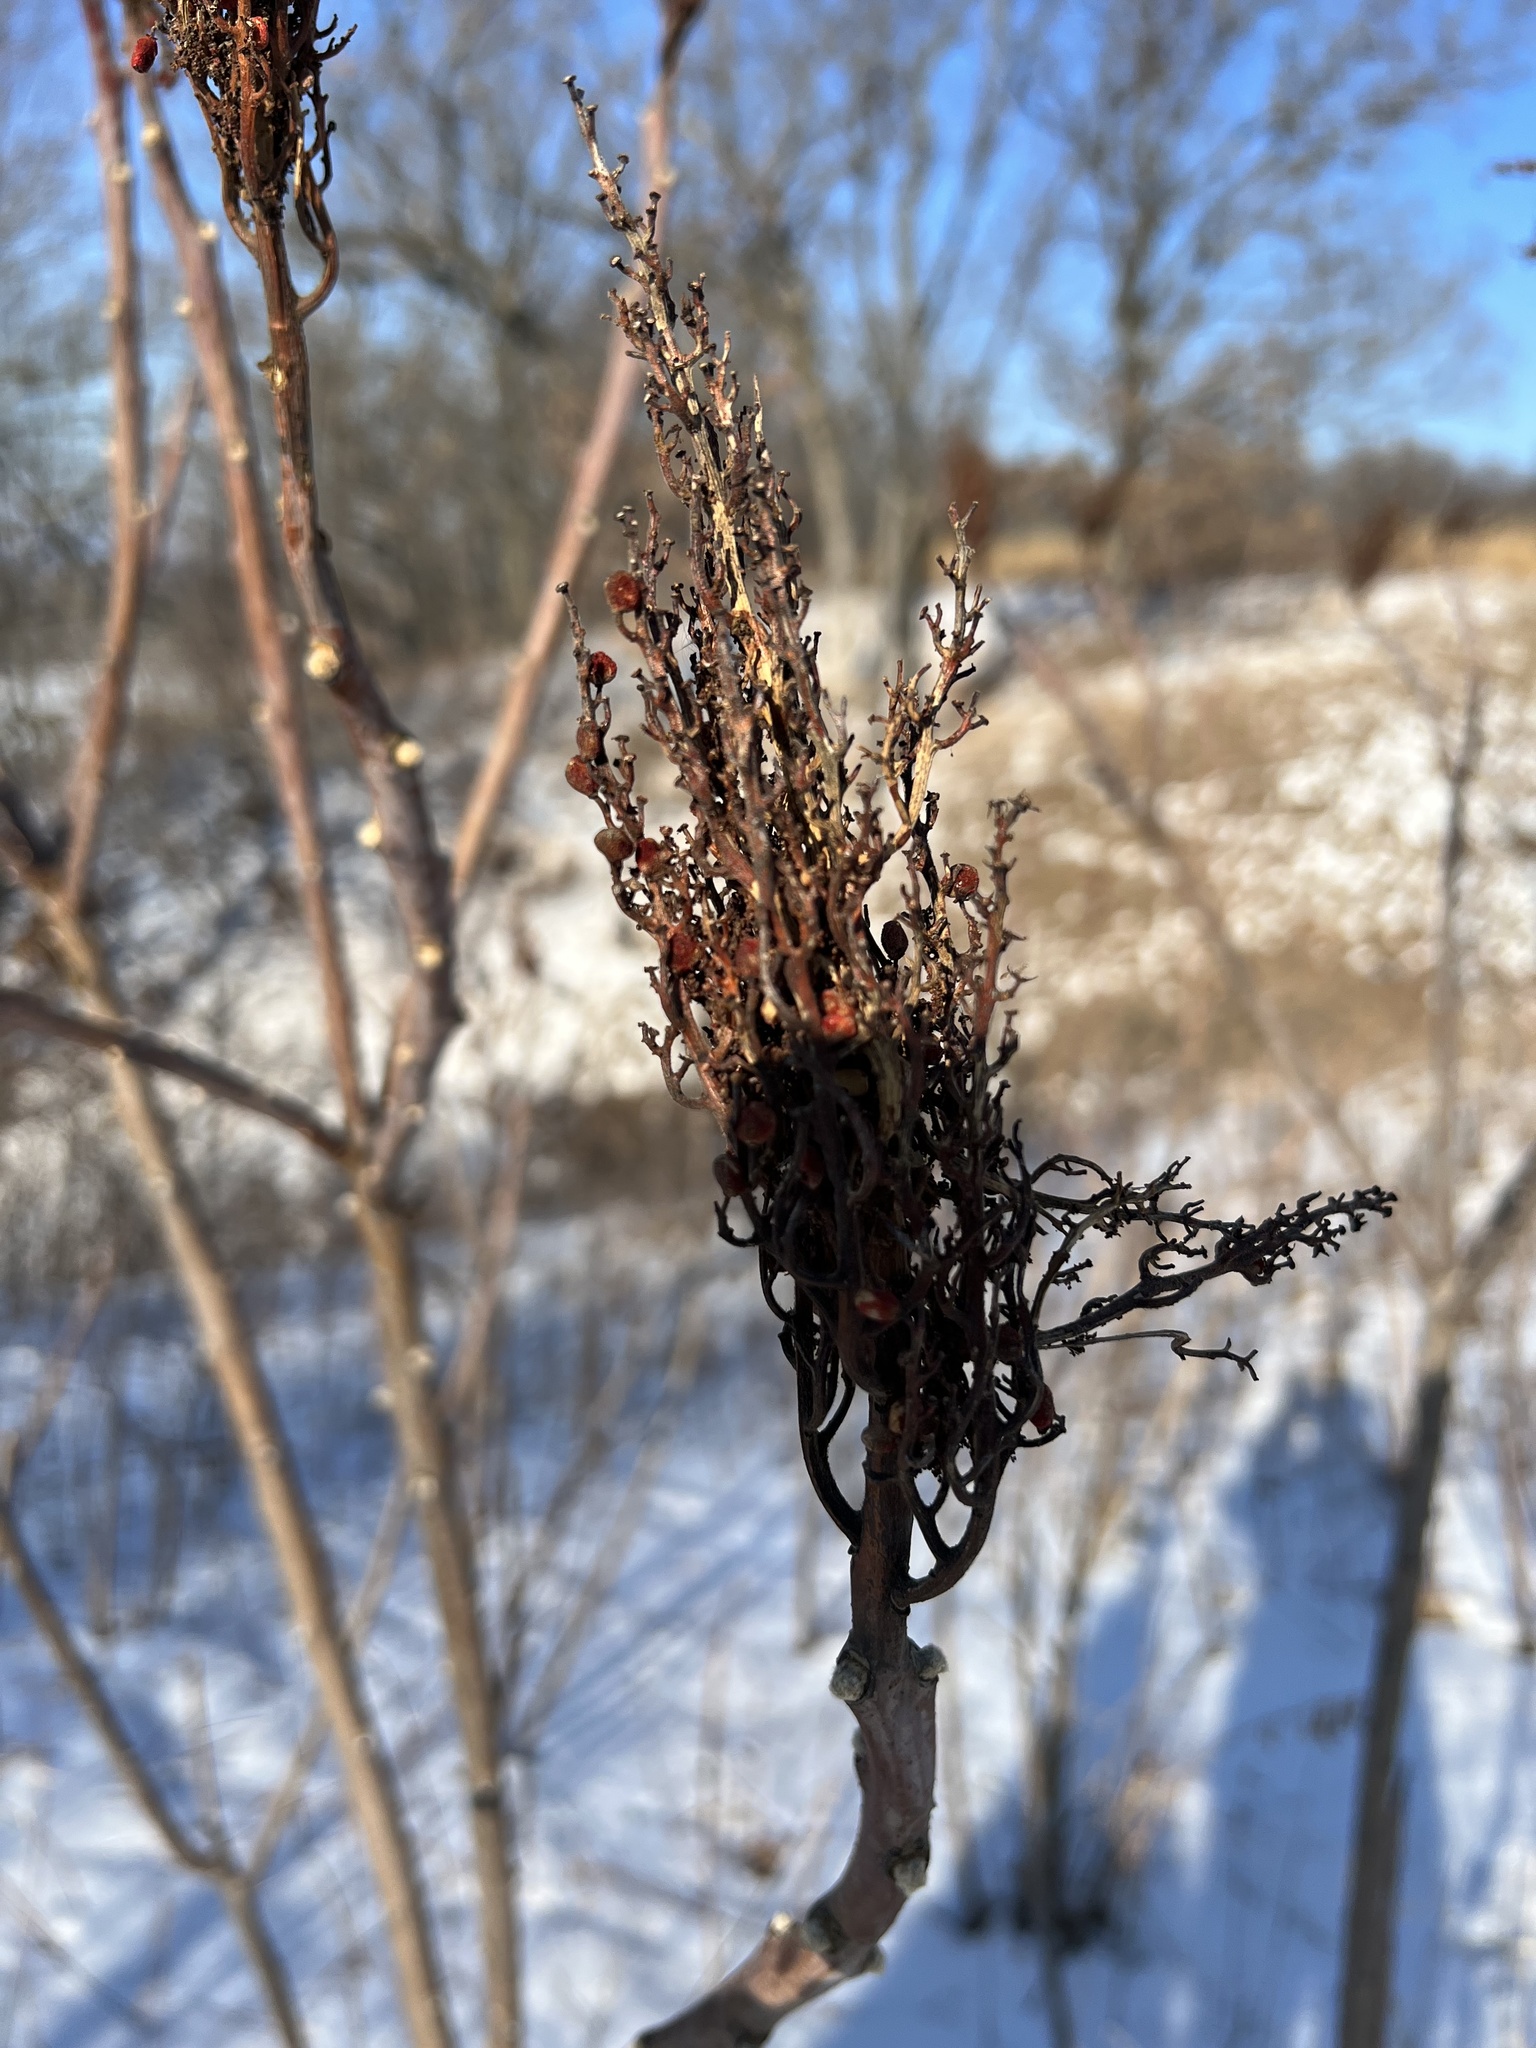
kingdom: Plantae
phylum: Tracheophyta
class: Magnoliopsida
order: Sapindales
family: Anacardiaceae
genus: Rhus
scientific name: Rhus glabra
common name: Scarlet sumac
